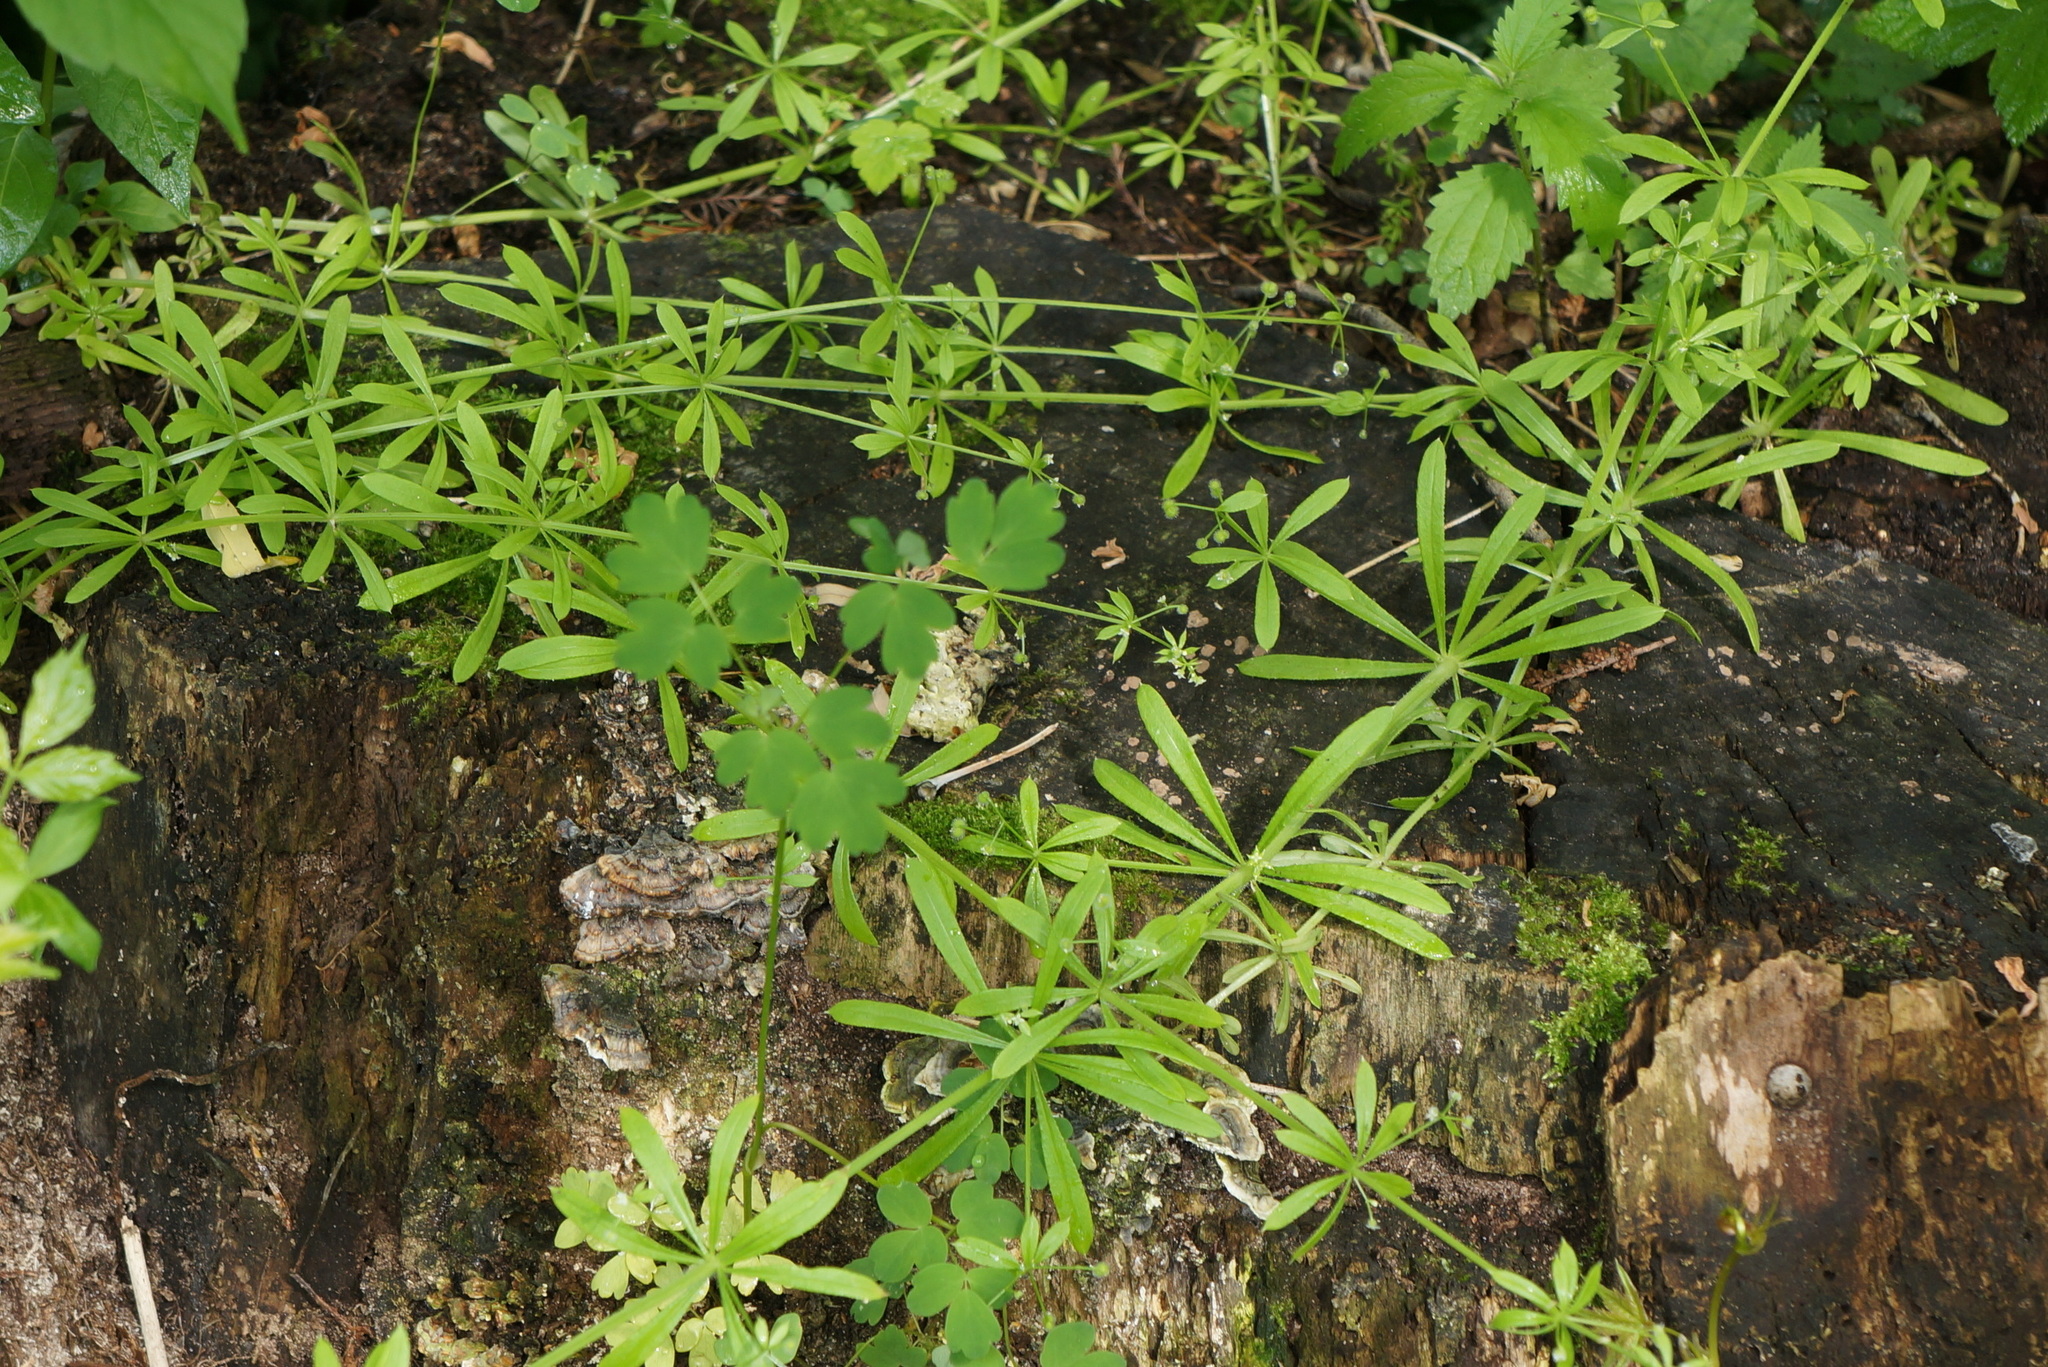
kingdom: Plantae
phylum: Tracheophyta
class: Magnoliopsida
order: Gentianales
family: Rubiaceae
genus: Galium
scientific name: Galium aparine
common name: Cleavers
